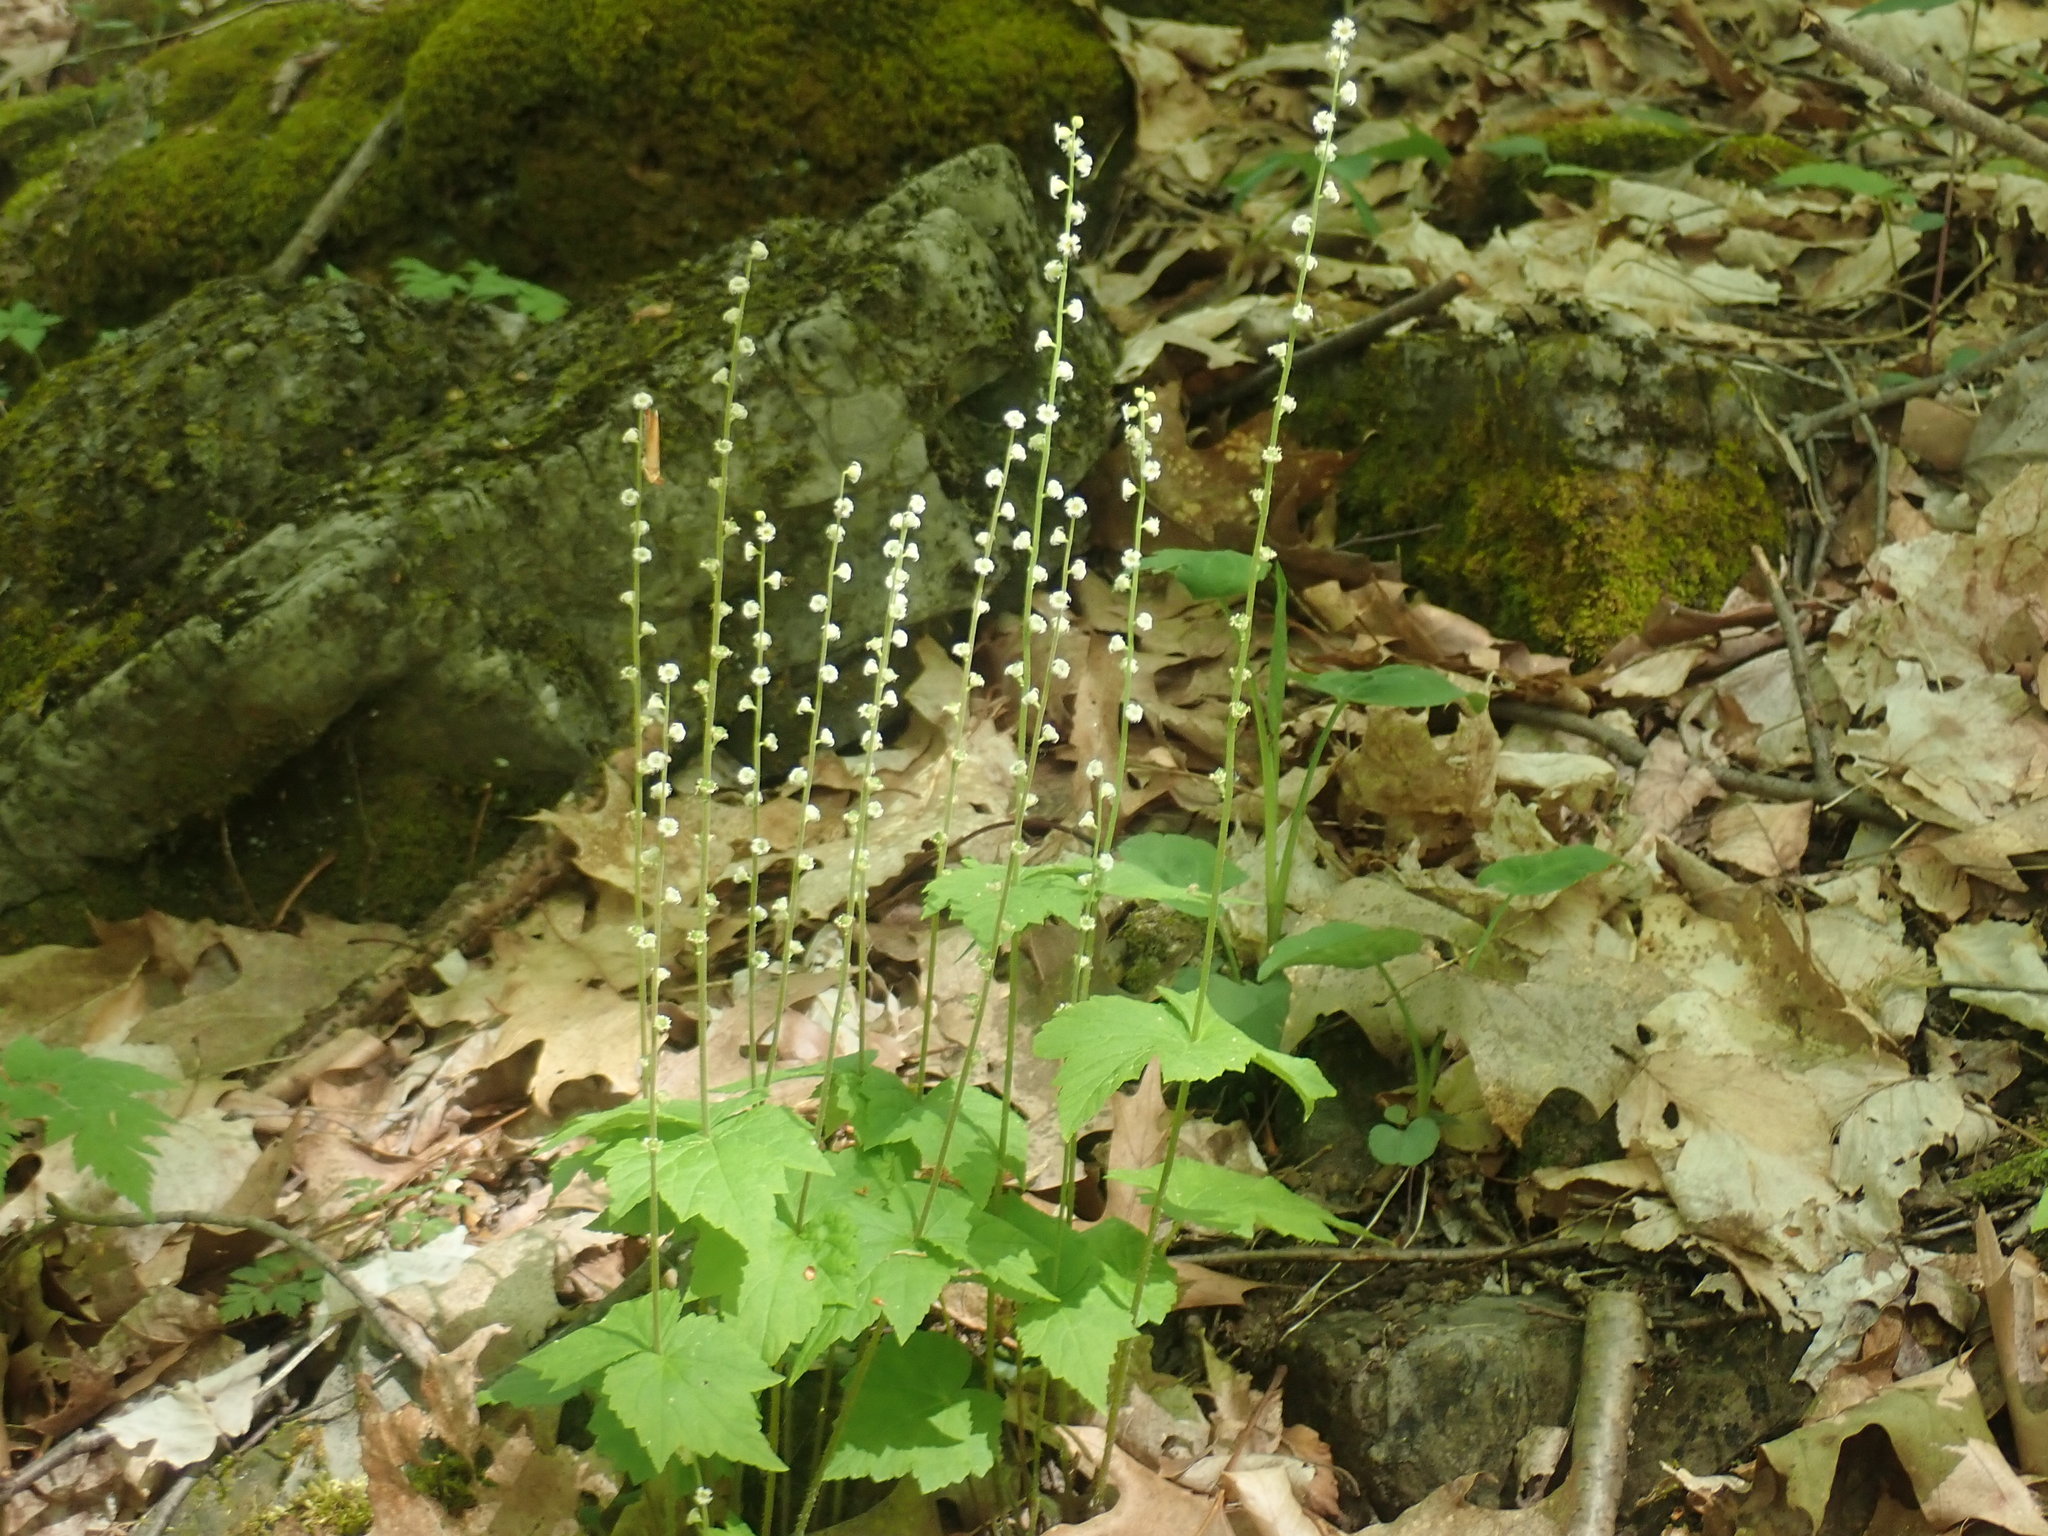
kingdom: Plantae
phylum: Tracheophyta
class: Magnoliopsida
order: Saxifragales
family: Saxifragaceae
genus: Mitella
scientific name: Mitella diphylla
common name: Coolwort
